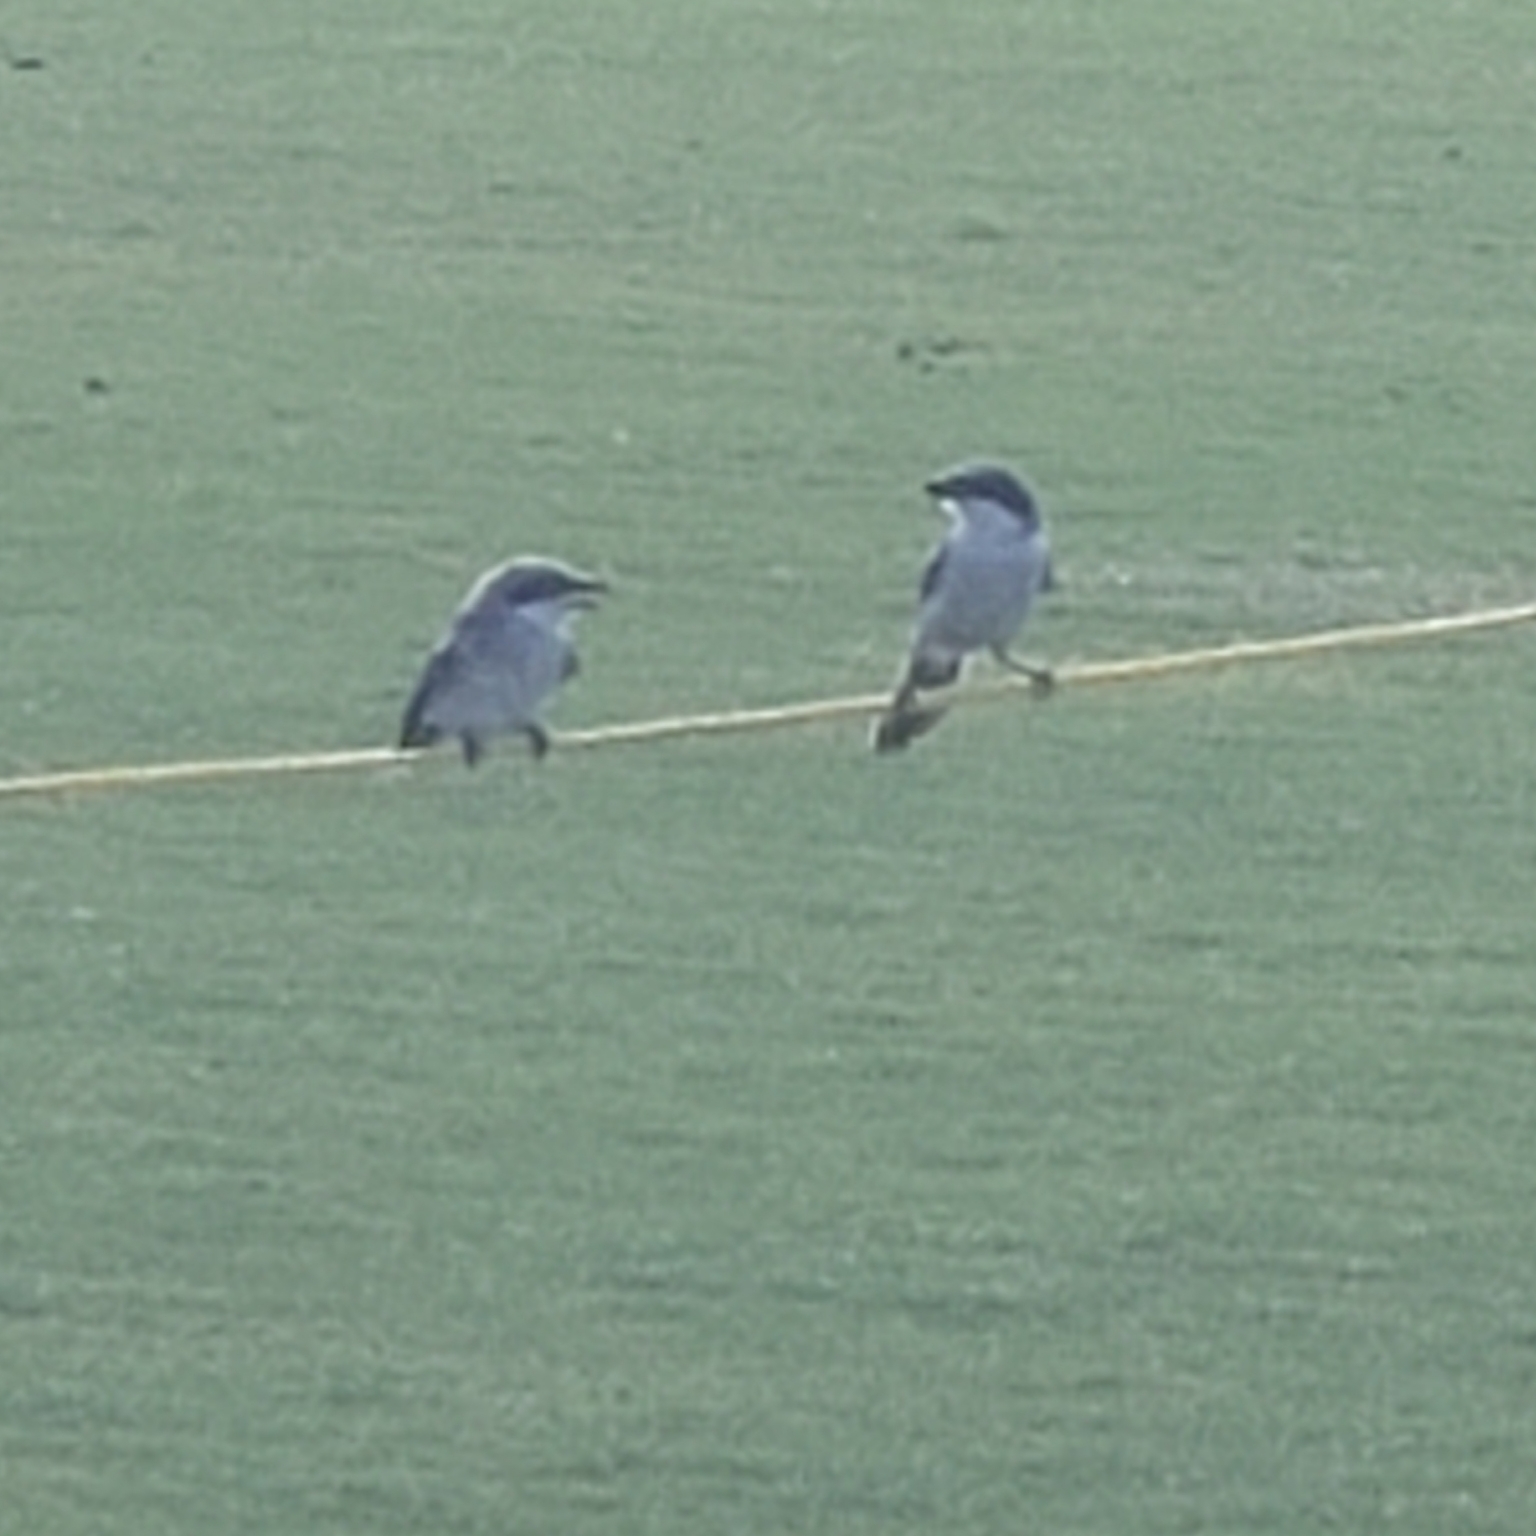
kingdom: Animalia
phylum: Chordata
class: Aves
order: Passeriformes
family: Laniidae
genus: Lanius
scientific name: Lanius ludovicianus
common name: Loggerhead shrike
